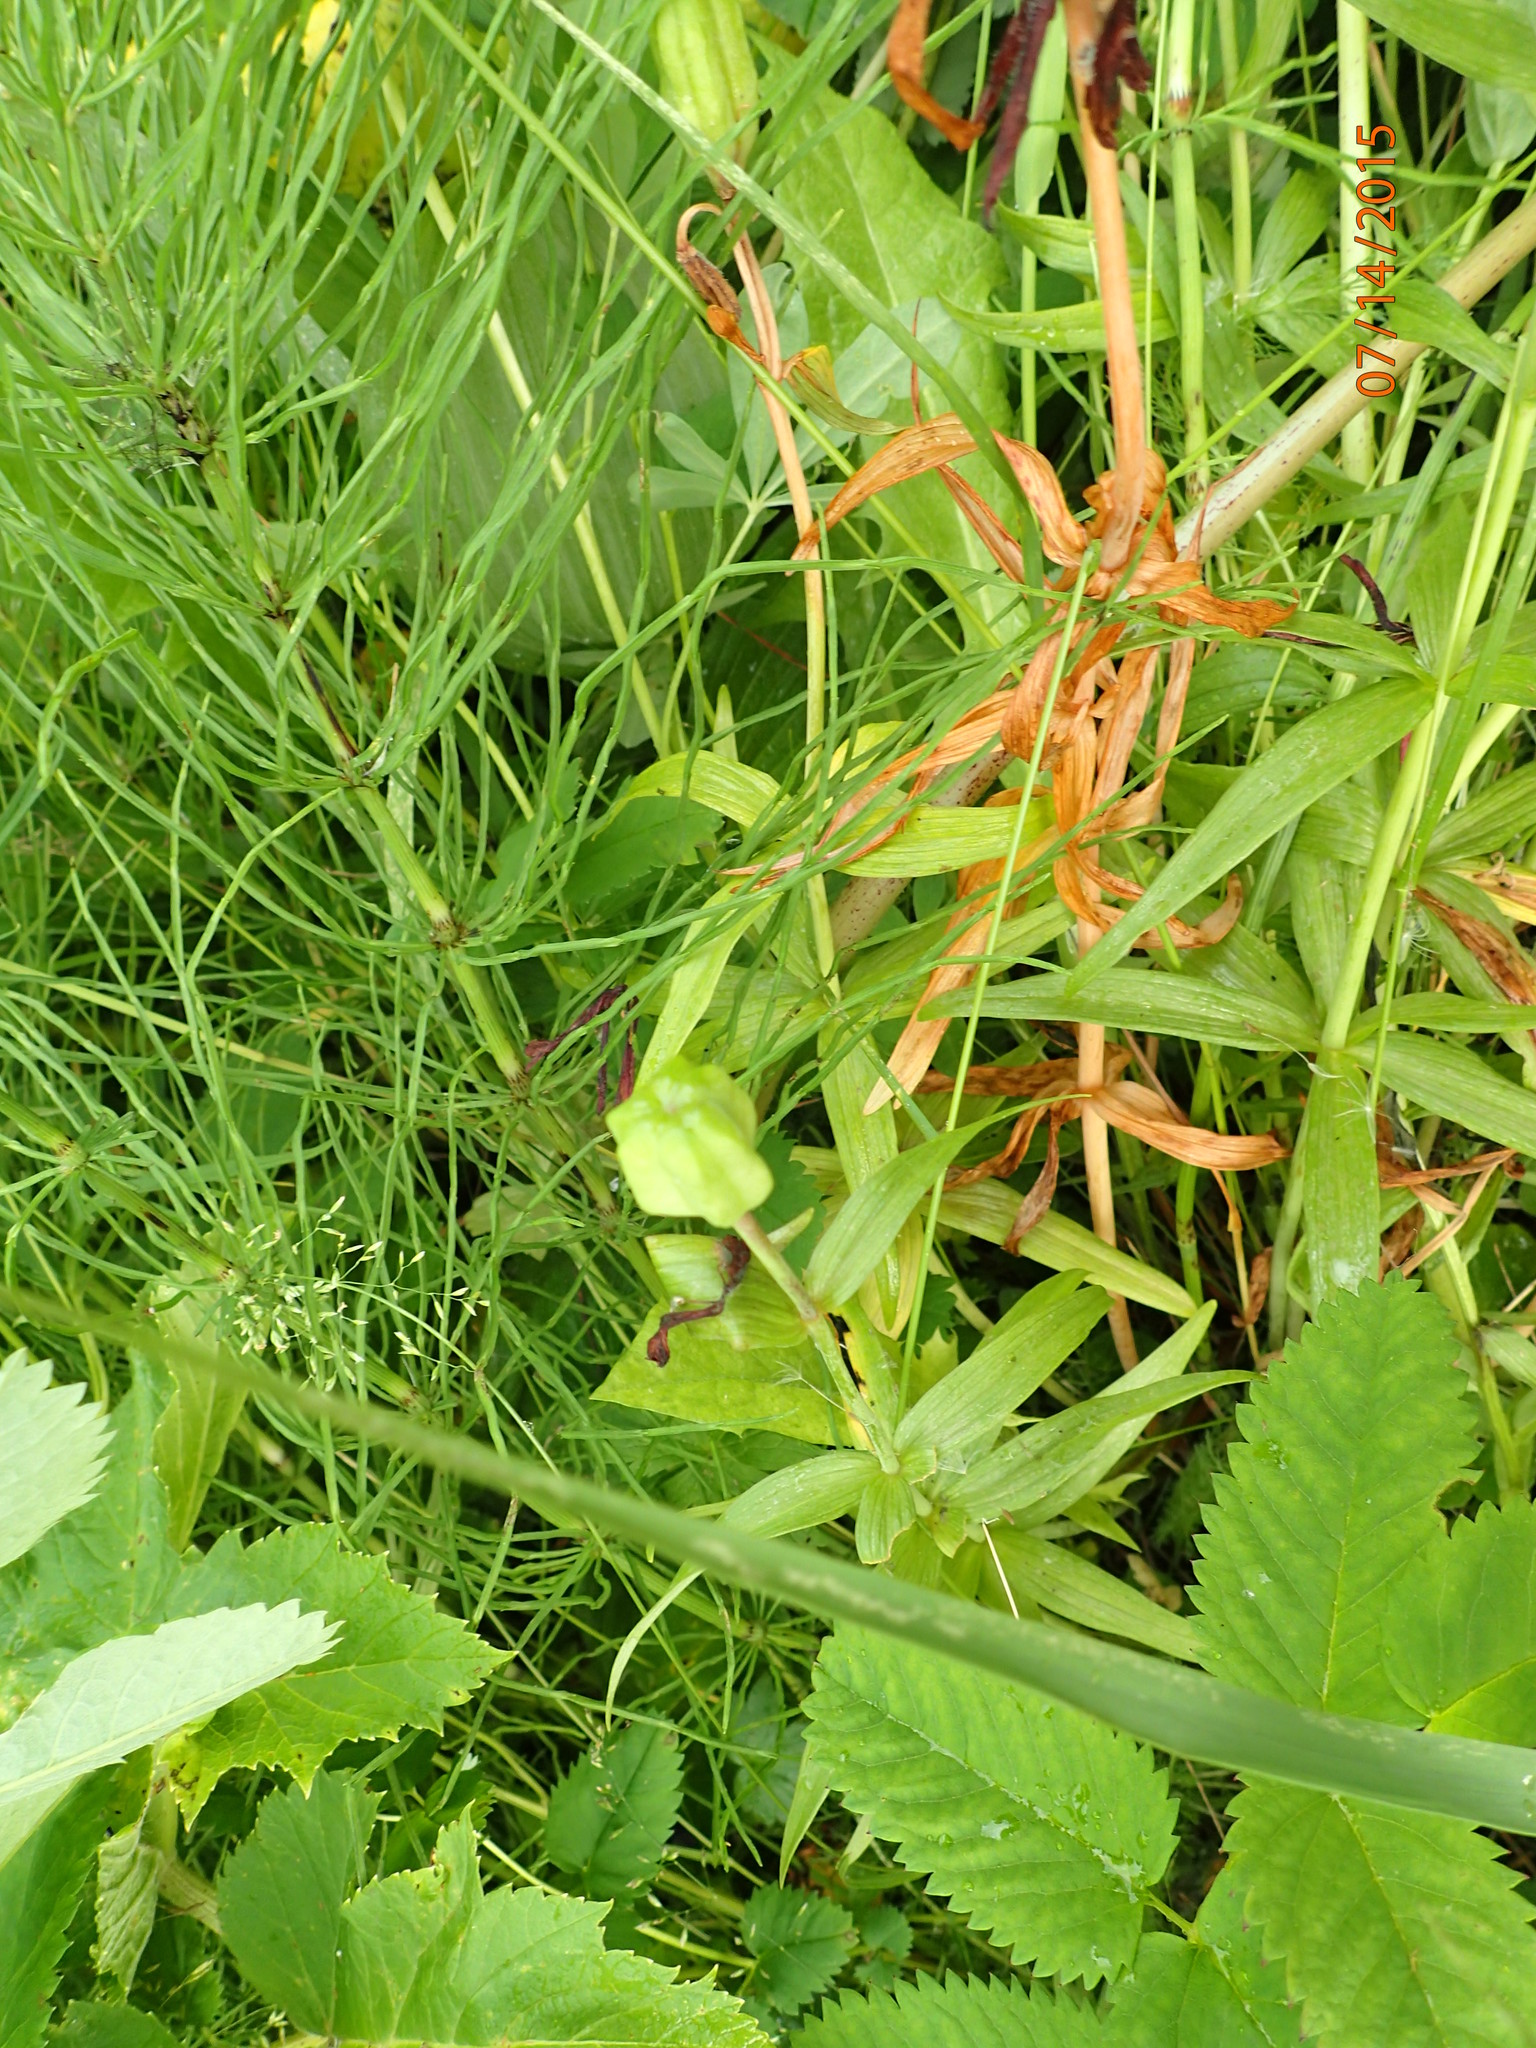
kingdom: Plantae
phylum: Tracheophyta
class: Liliopsida
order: Liliales
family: Liliaceae
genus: Fritillaria
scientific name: Fritillaria camschatcensis
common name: Kamchatka fritillary
